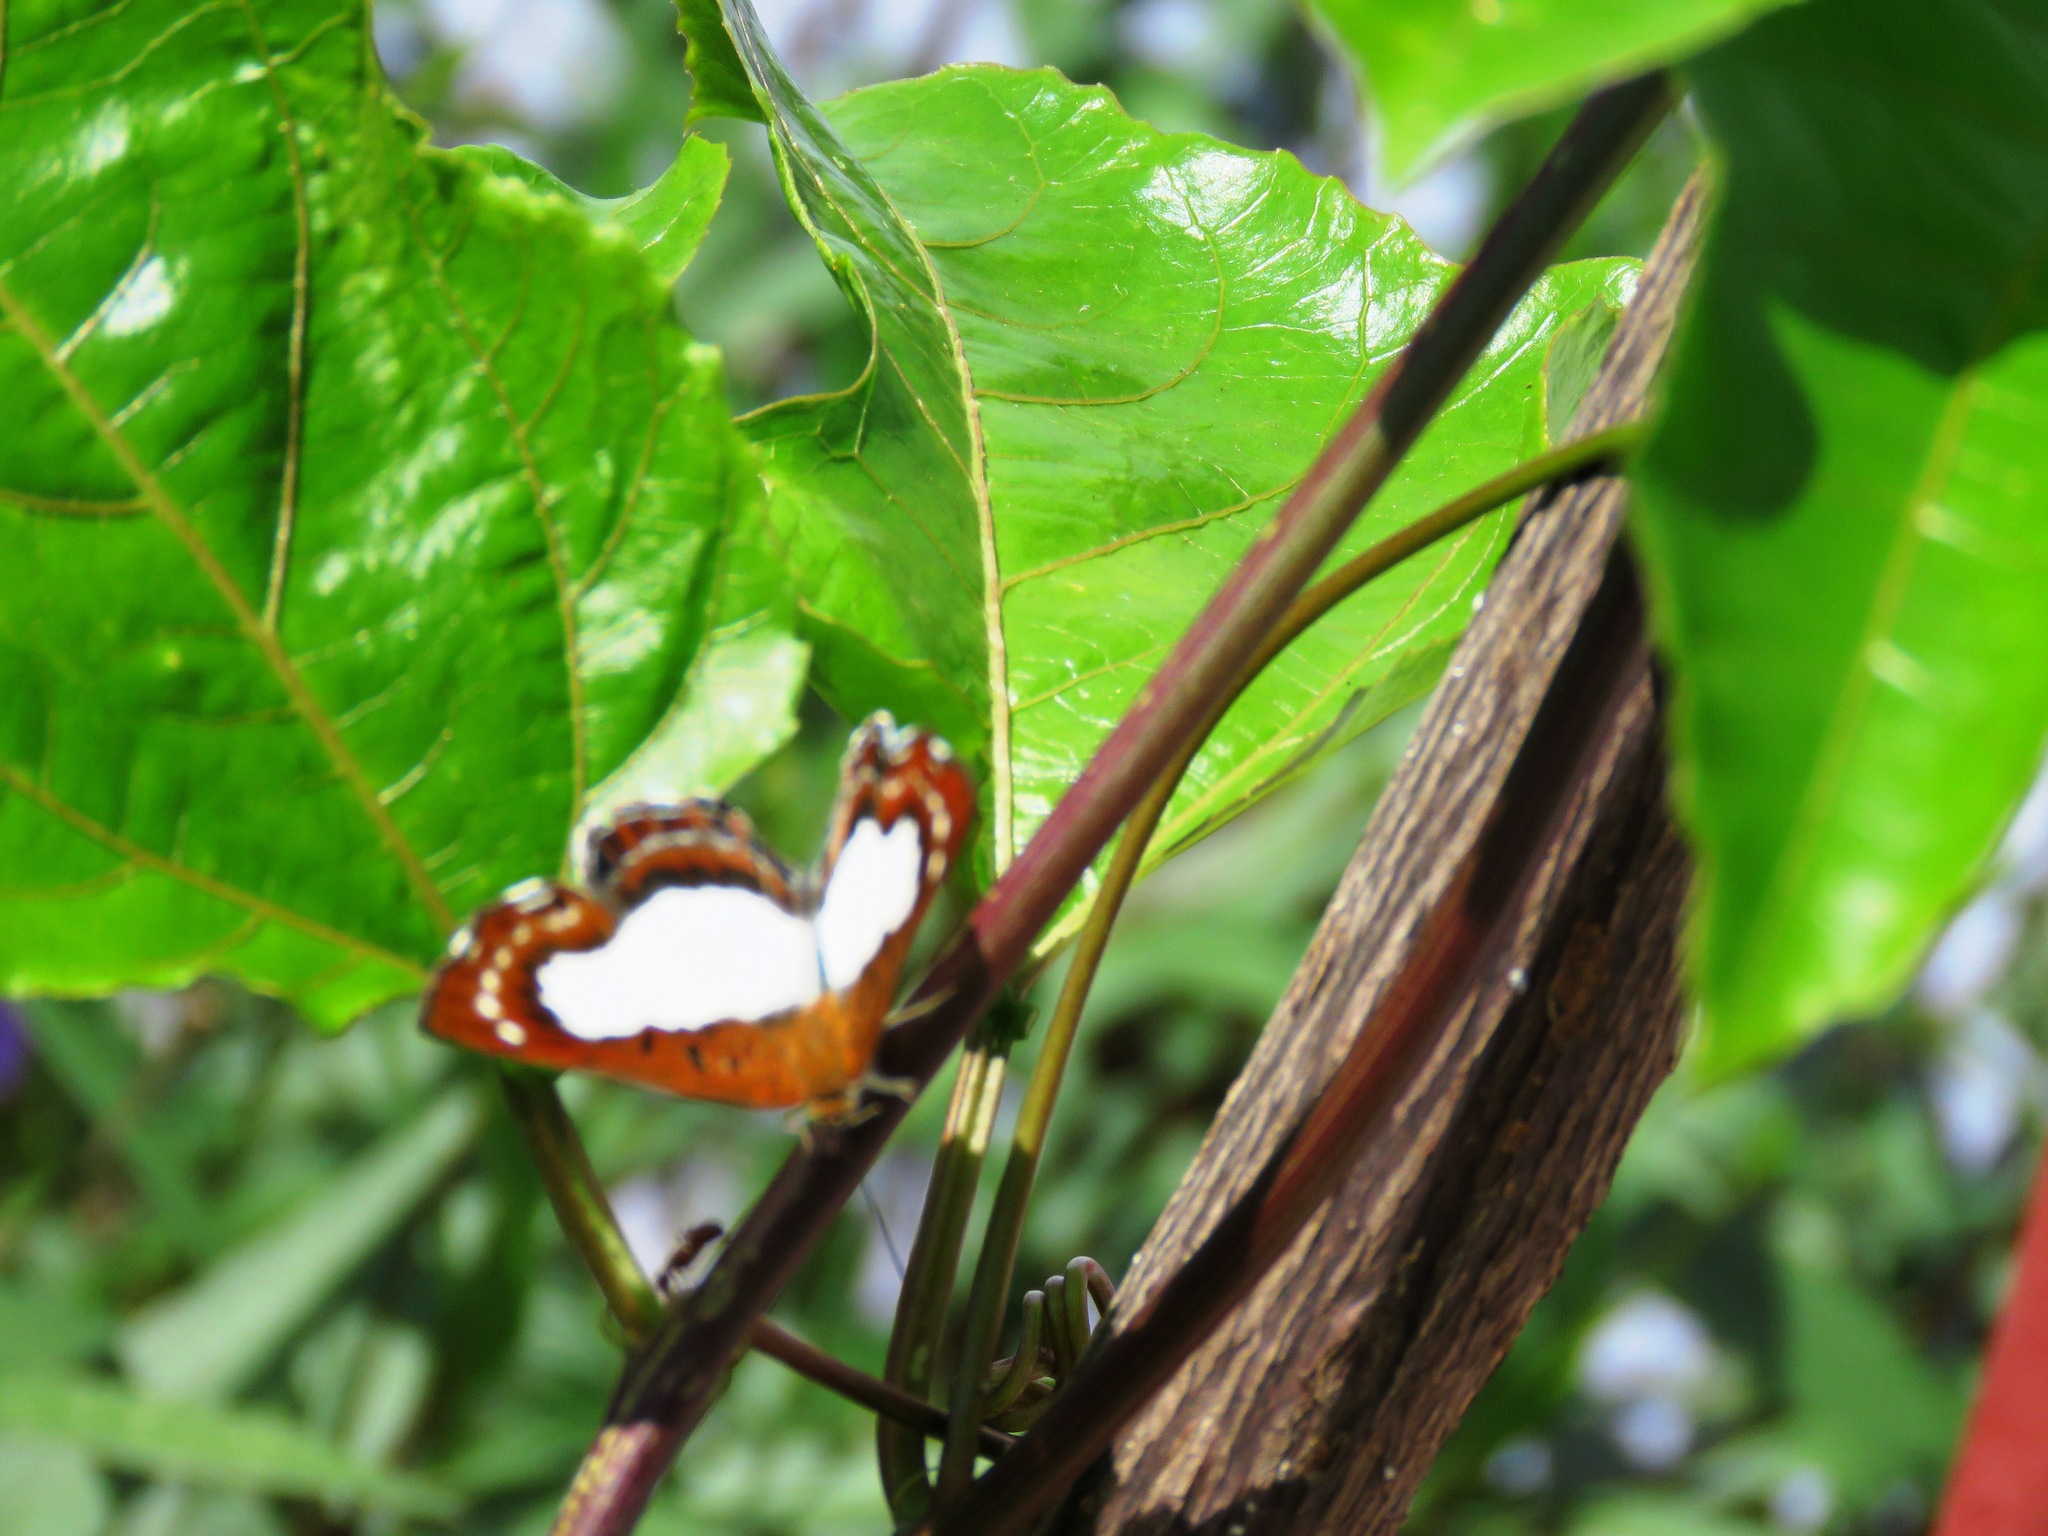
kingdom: Animalia
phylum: Arthropoda
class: Insecta
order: Lepidoptera
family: Riodinidae
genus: Synargis
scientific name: Synargis mycone
